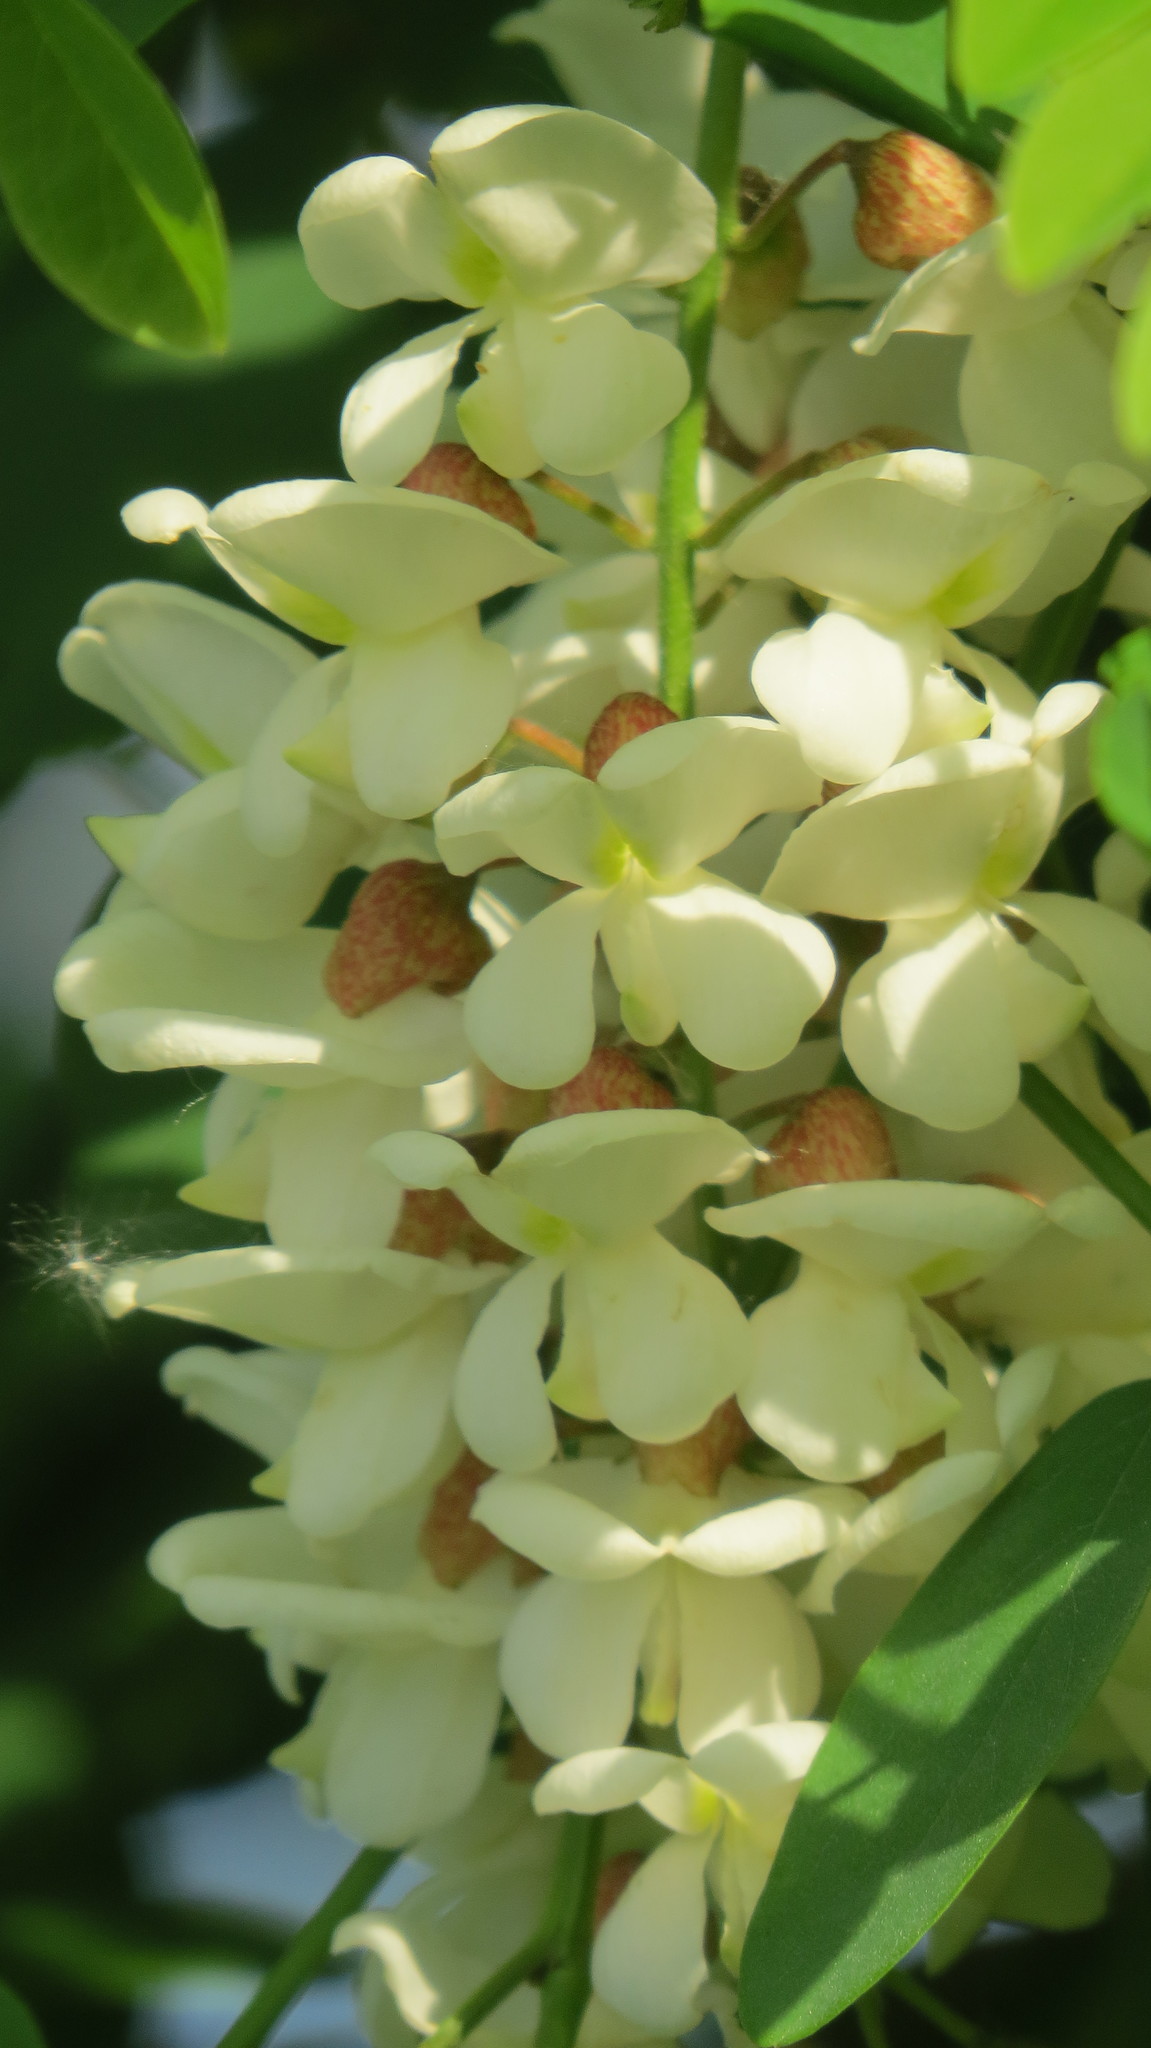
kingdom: Plantae
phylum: Tracheophyta
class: Magnoliopsida
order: Fabales
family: Fabaceae
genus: Robinia
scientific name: Robinia pseudoacacia
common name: Black locust
